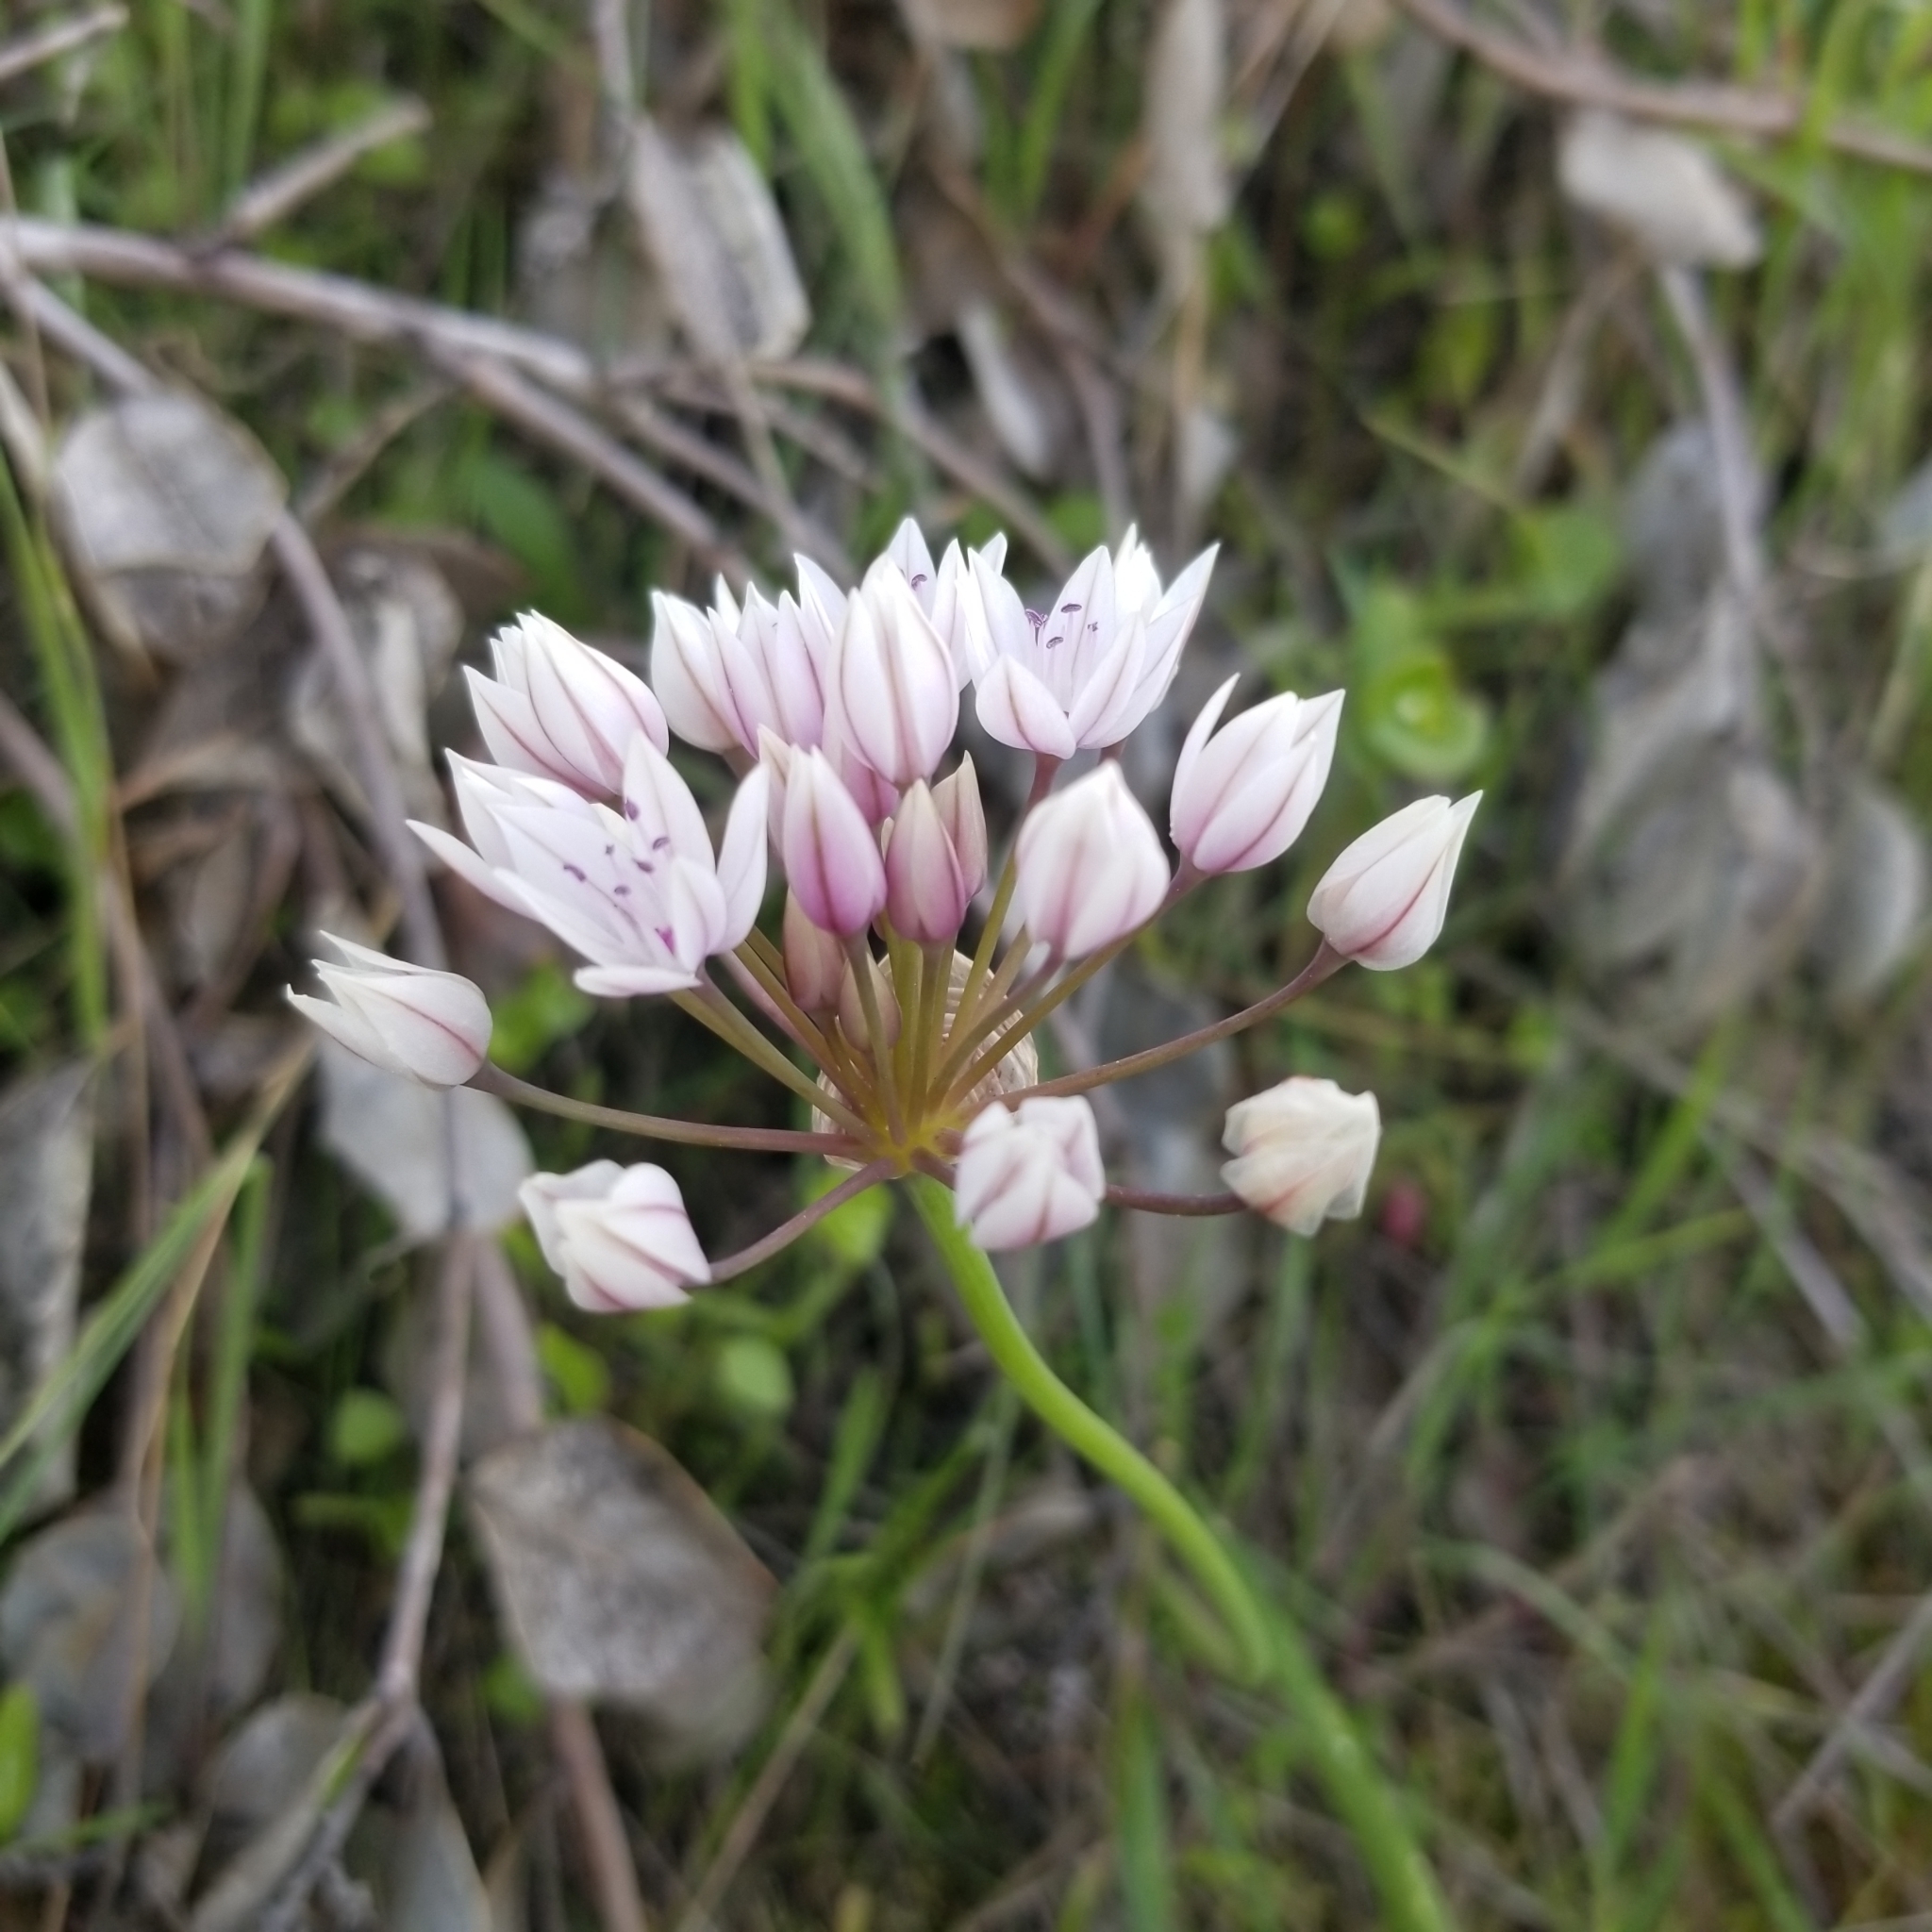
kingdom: Plantae
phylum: Tracheophyta
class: Liliopsida
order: Asparagales
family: Amaryllidaceae
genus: Allium
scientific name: Allium praecox
